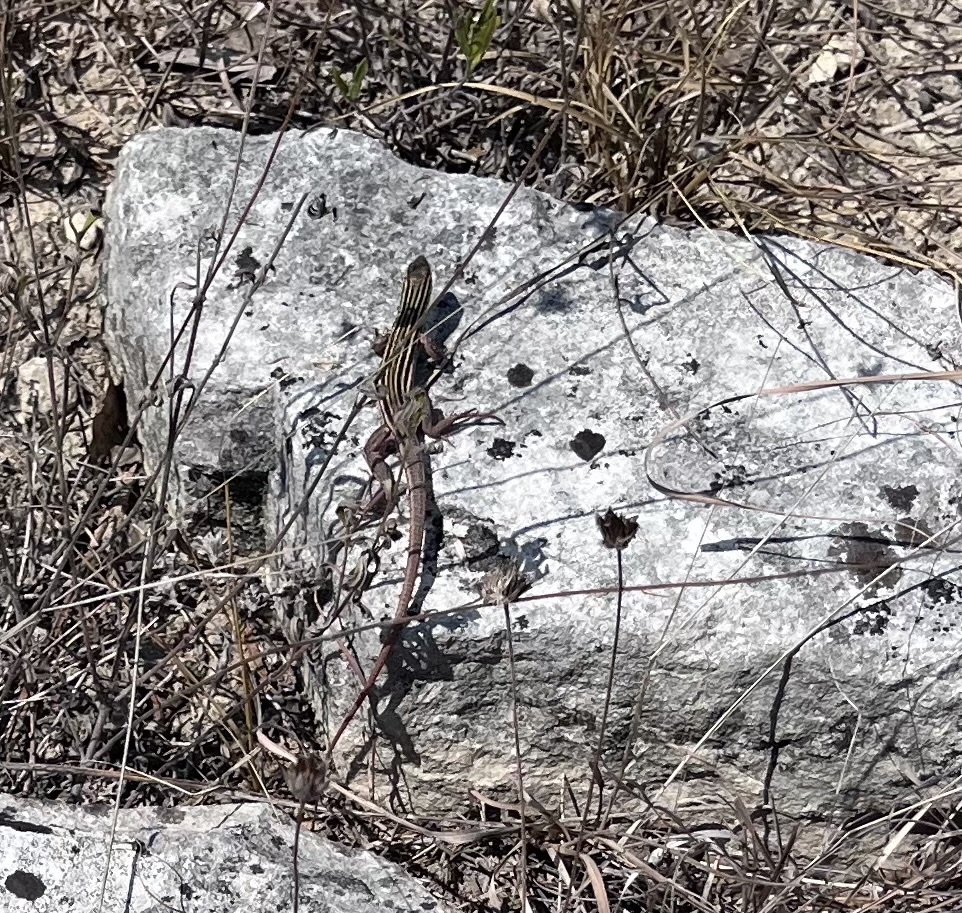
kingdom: Animalia
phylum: Chordata
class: Squamata
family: Teiidae
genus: Aspidoscelis
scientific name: Aspidoscelis gularis
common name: Eastern spotted whiptail
